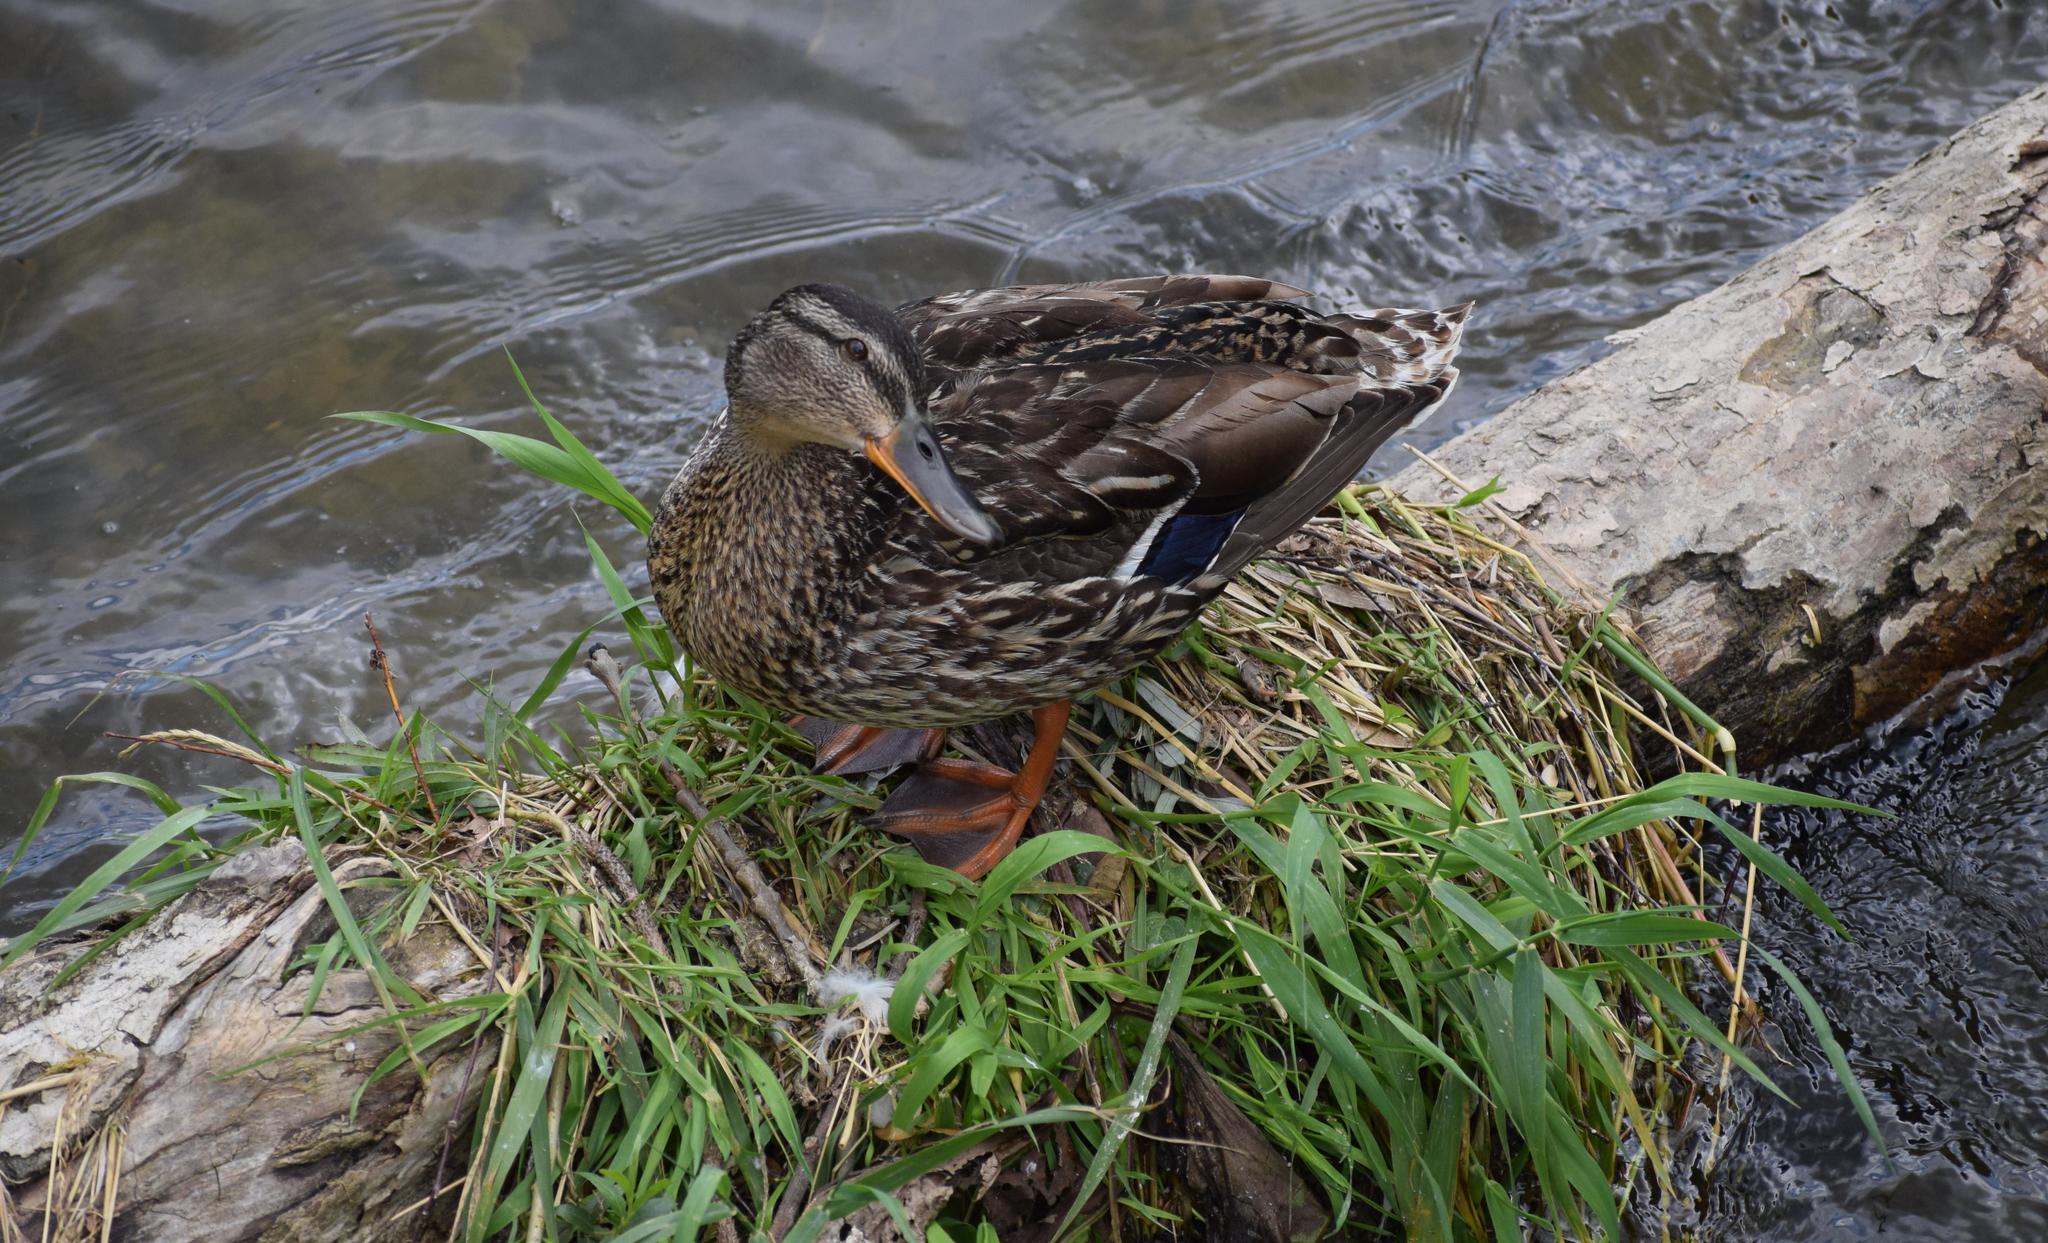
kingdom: Animalia
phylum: Chordata
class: Aves
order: Anseriformes
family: Anatidae
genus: Anas
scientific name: Anas platyrhynchos
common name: Mallard
